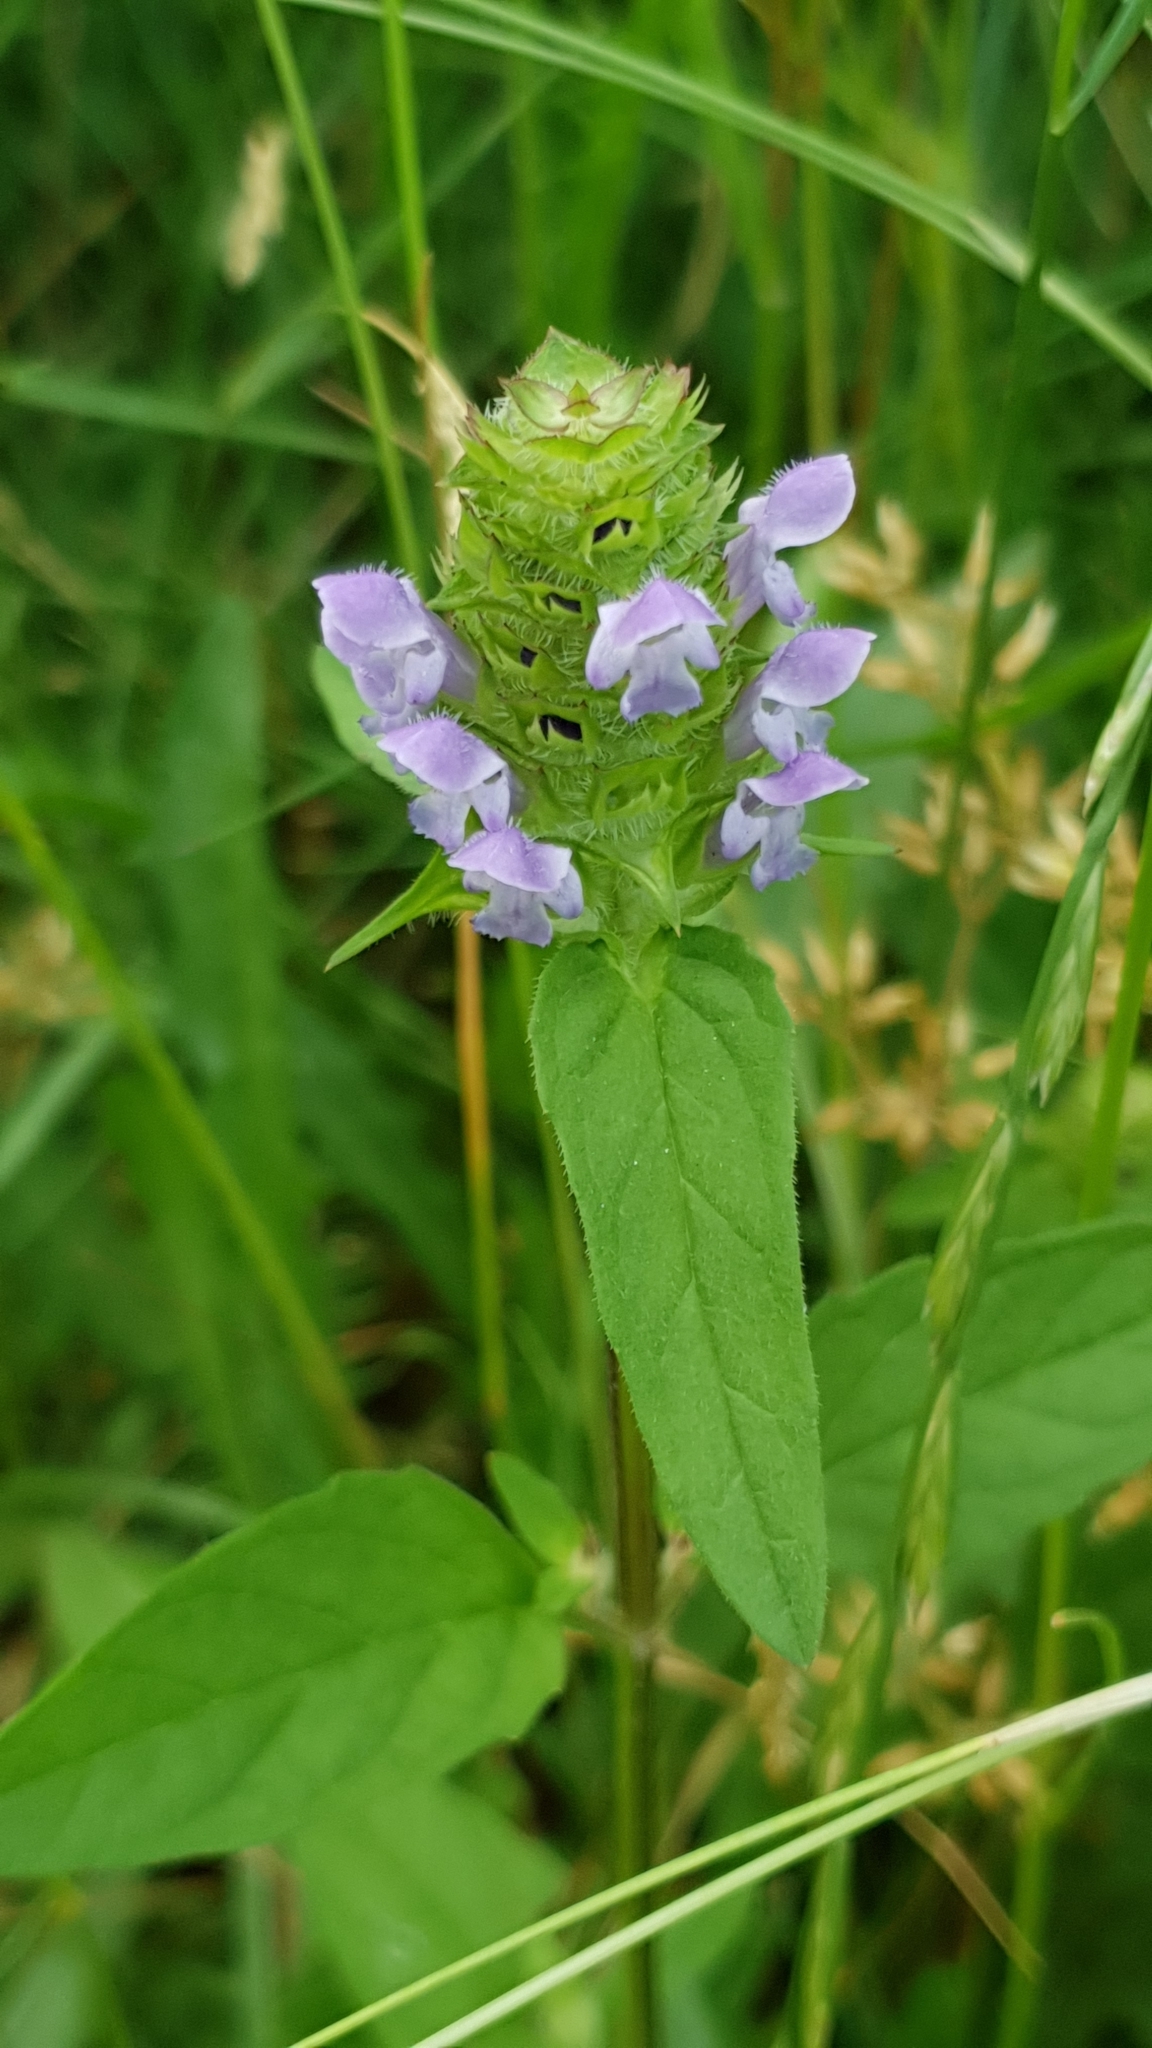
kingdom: Plantae
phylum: Tracheophyta
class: Magnoliopsida
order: Lamiales
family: Lamiaceae
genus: Prunella
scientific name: Prunella vulgaris
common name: Heal-all
